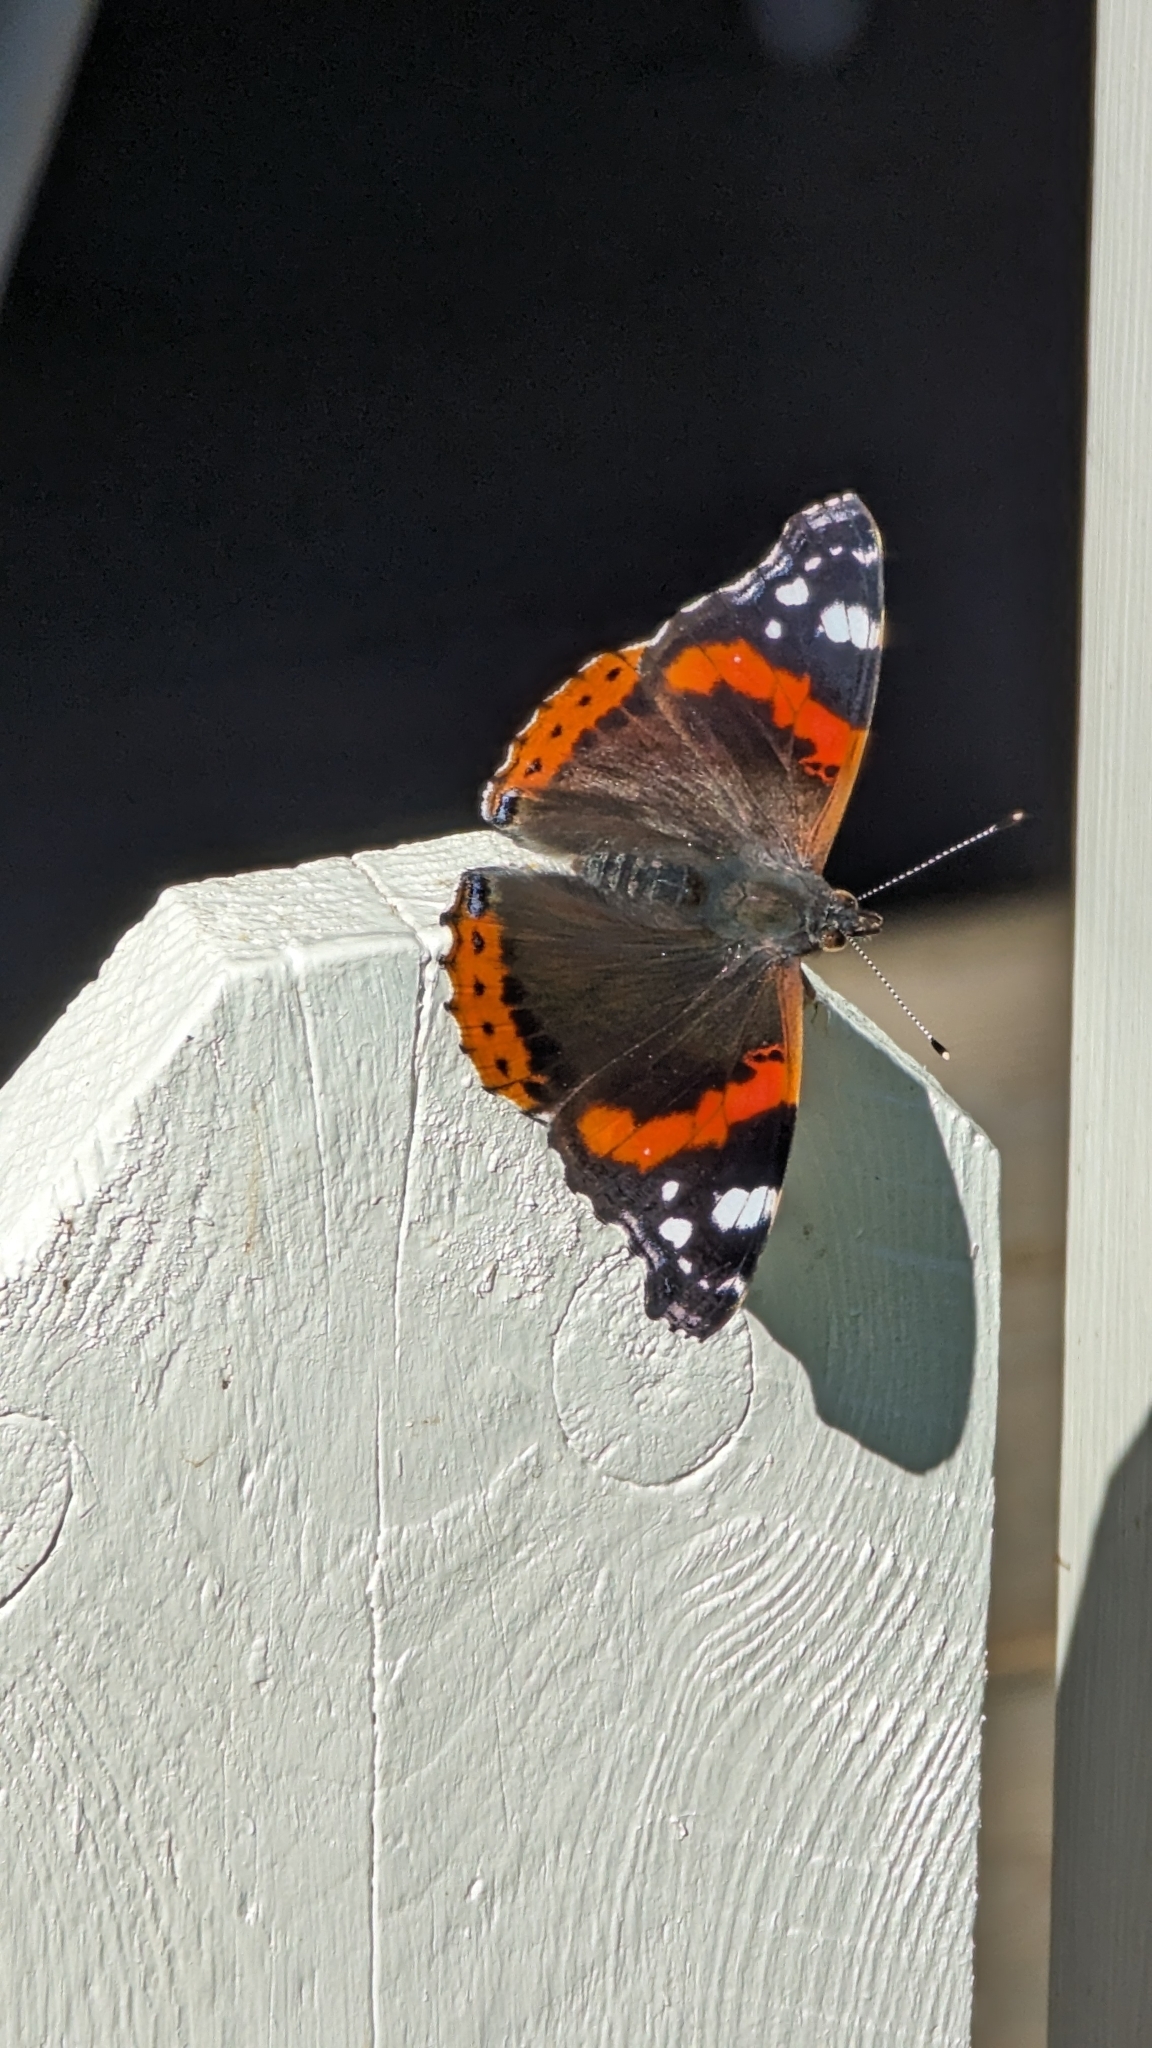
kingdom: Animalia
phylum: Arthropoda
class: Insecta
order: Lepidoptera
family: Nymphalidae
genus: Vanessa
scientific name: Vanessa atalanta
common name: Red admiral
